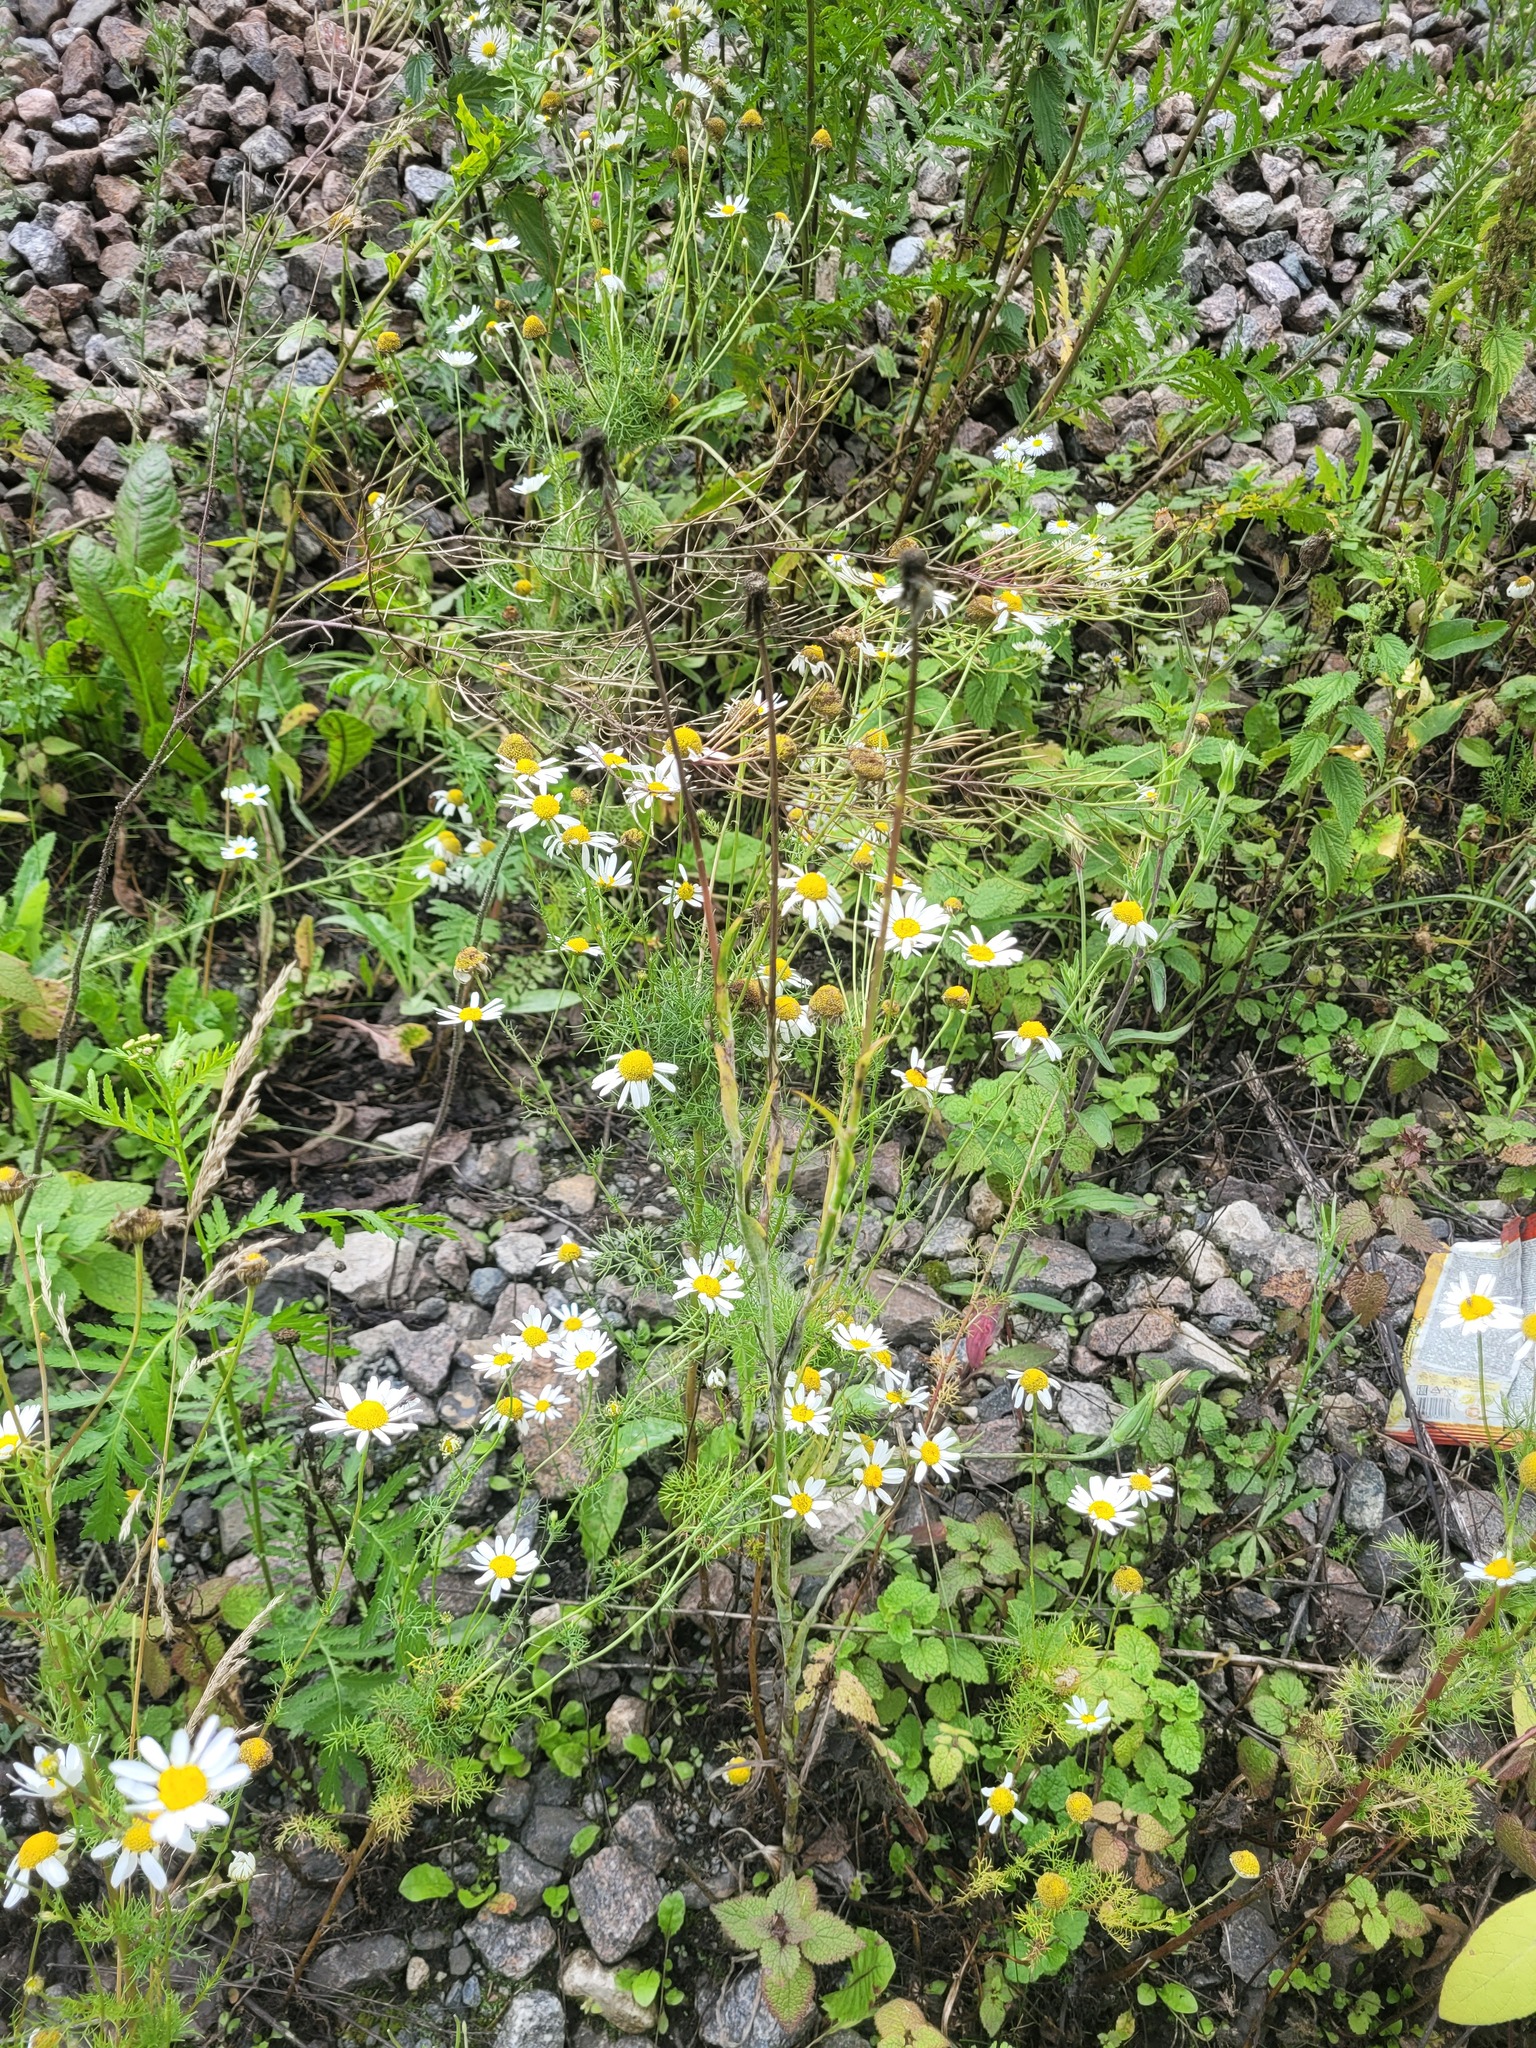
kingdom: Plantae
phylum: Tracheophyta
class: Magnoliopsida
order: Asterales
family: Asteraceae
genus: Tripleurospermum
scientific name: Tripleurospermum inodorum
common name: Scentless mayweed
